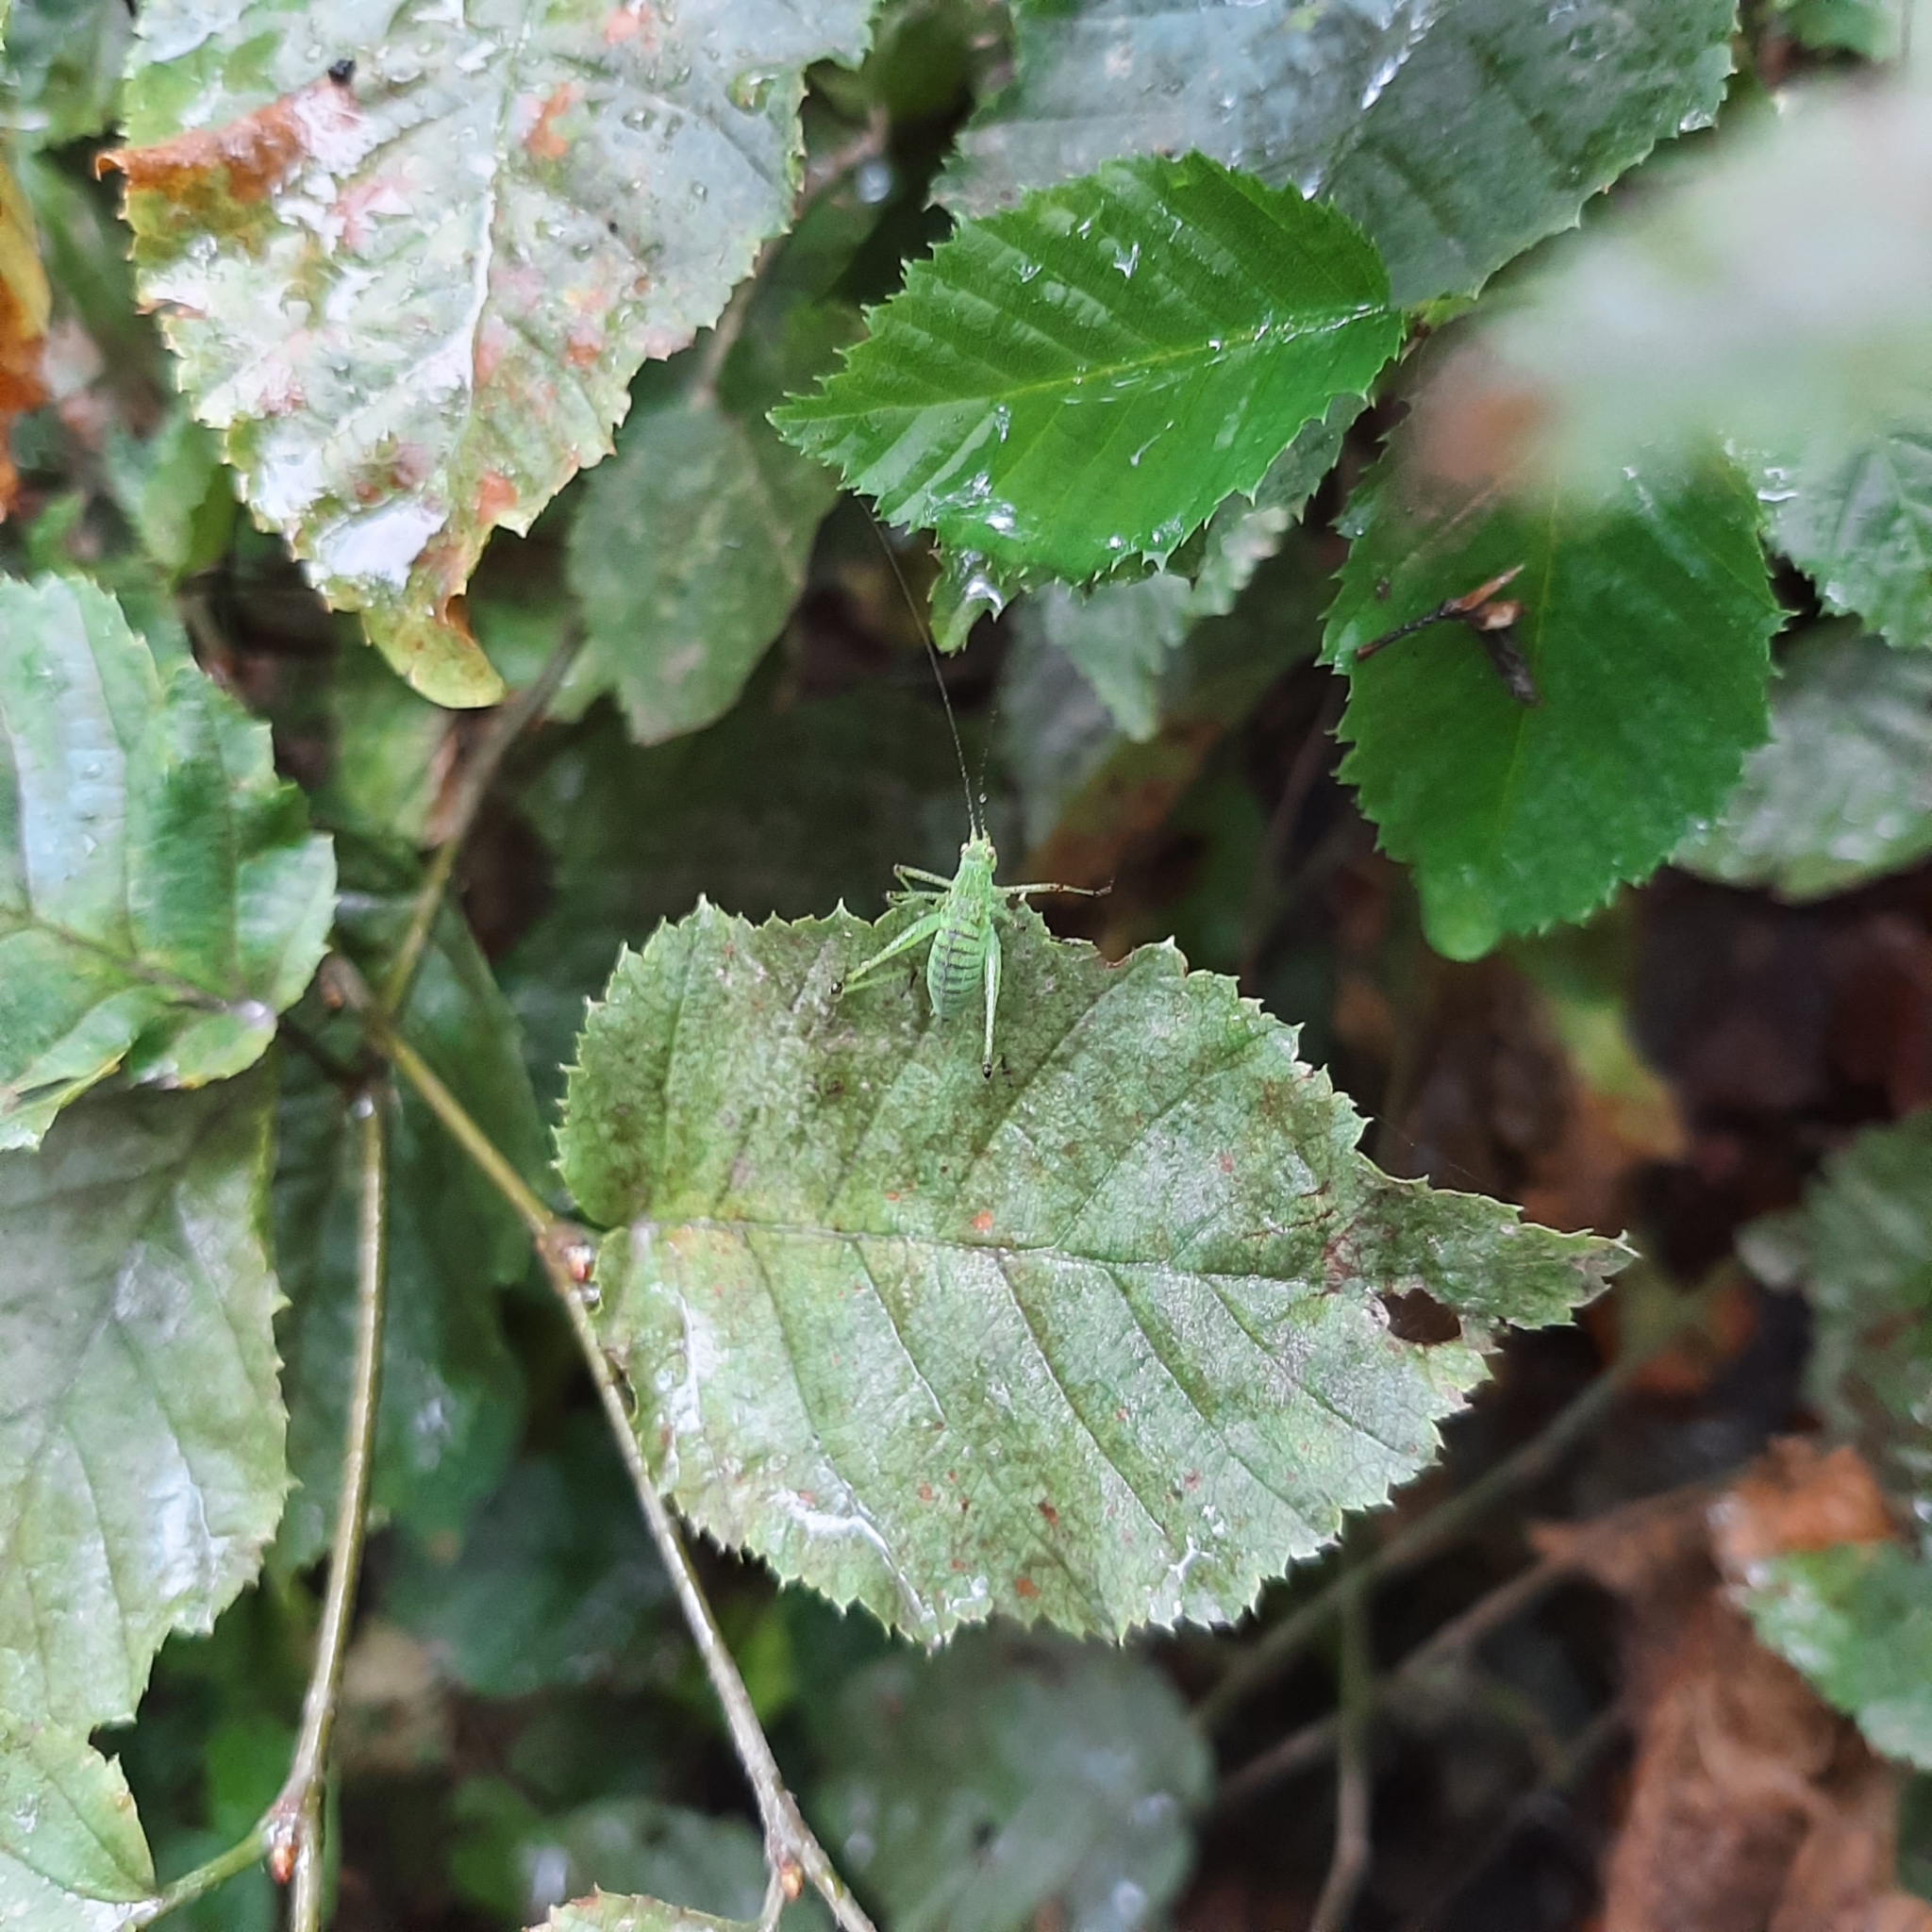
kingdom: Animalia
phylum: Arthropoda
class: Insecta
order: Orthoptera
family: Tettigoniidae
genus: Phaneroptera
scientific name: Phaneroptera
